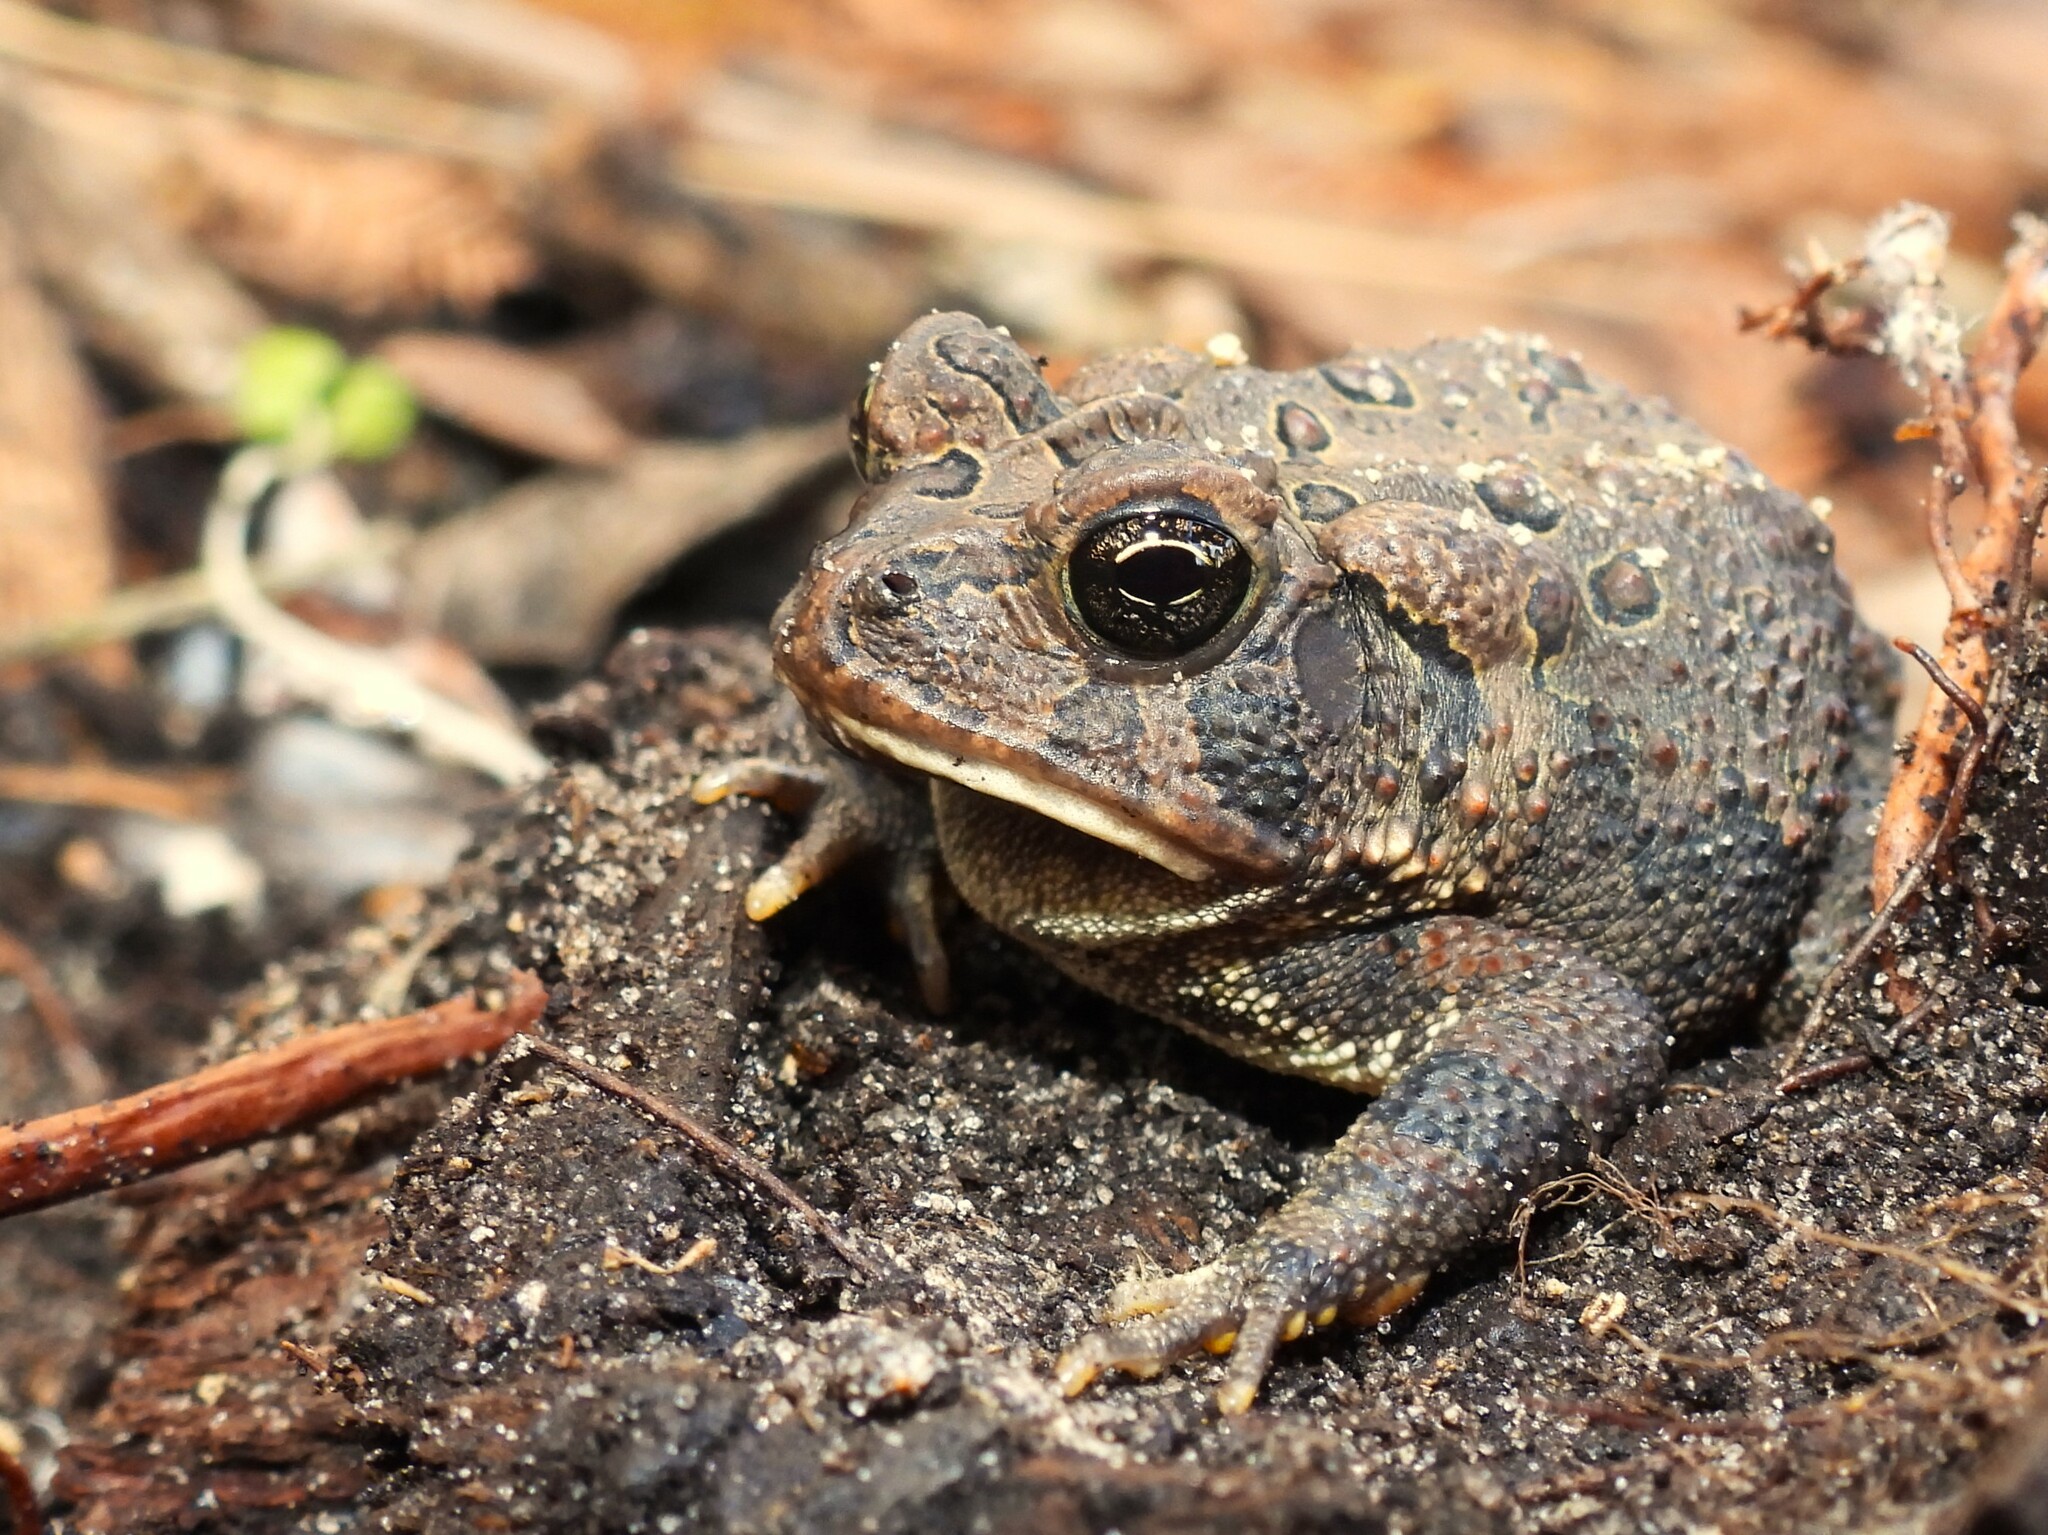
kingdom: Animalia
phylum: Chordata
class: Amphibia
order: Anura
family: Bufonidae
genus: Anaxyrus
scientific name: Anaxyrus terrestris
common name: Southern toad
